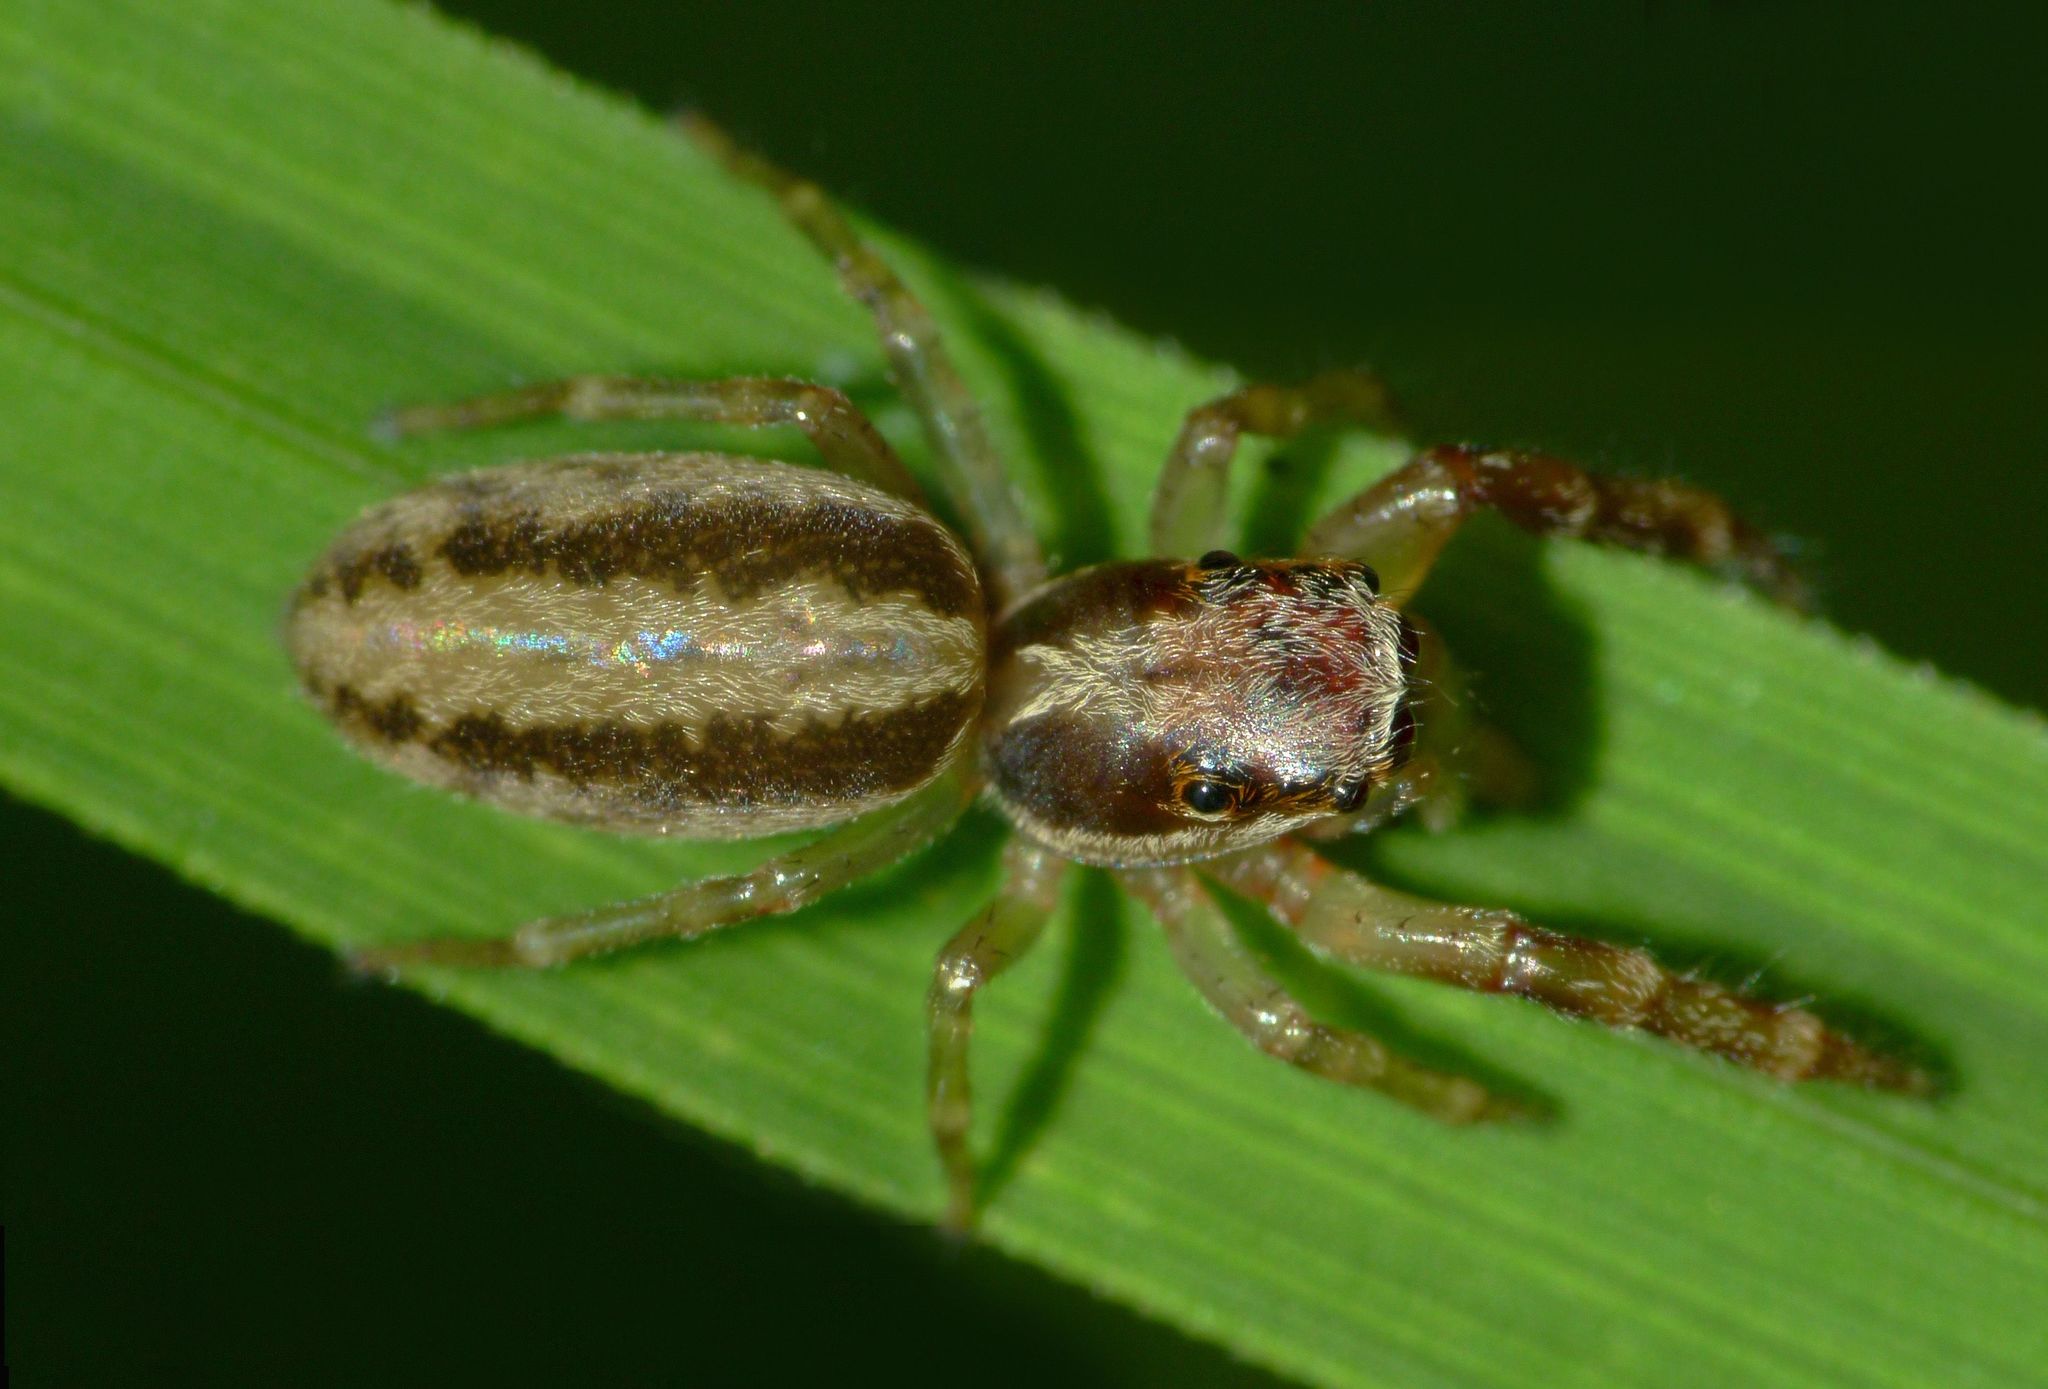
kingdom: Animalia
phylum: Arthropoda
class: Arachnida
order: Araneae
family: Salticidae
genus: Trite
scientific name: Trite mustilina
